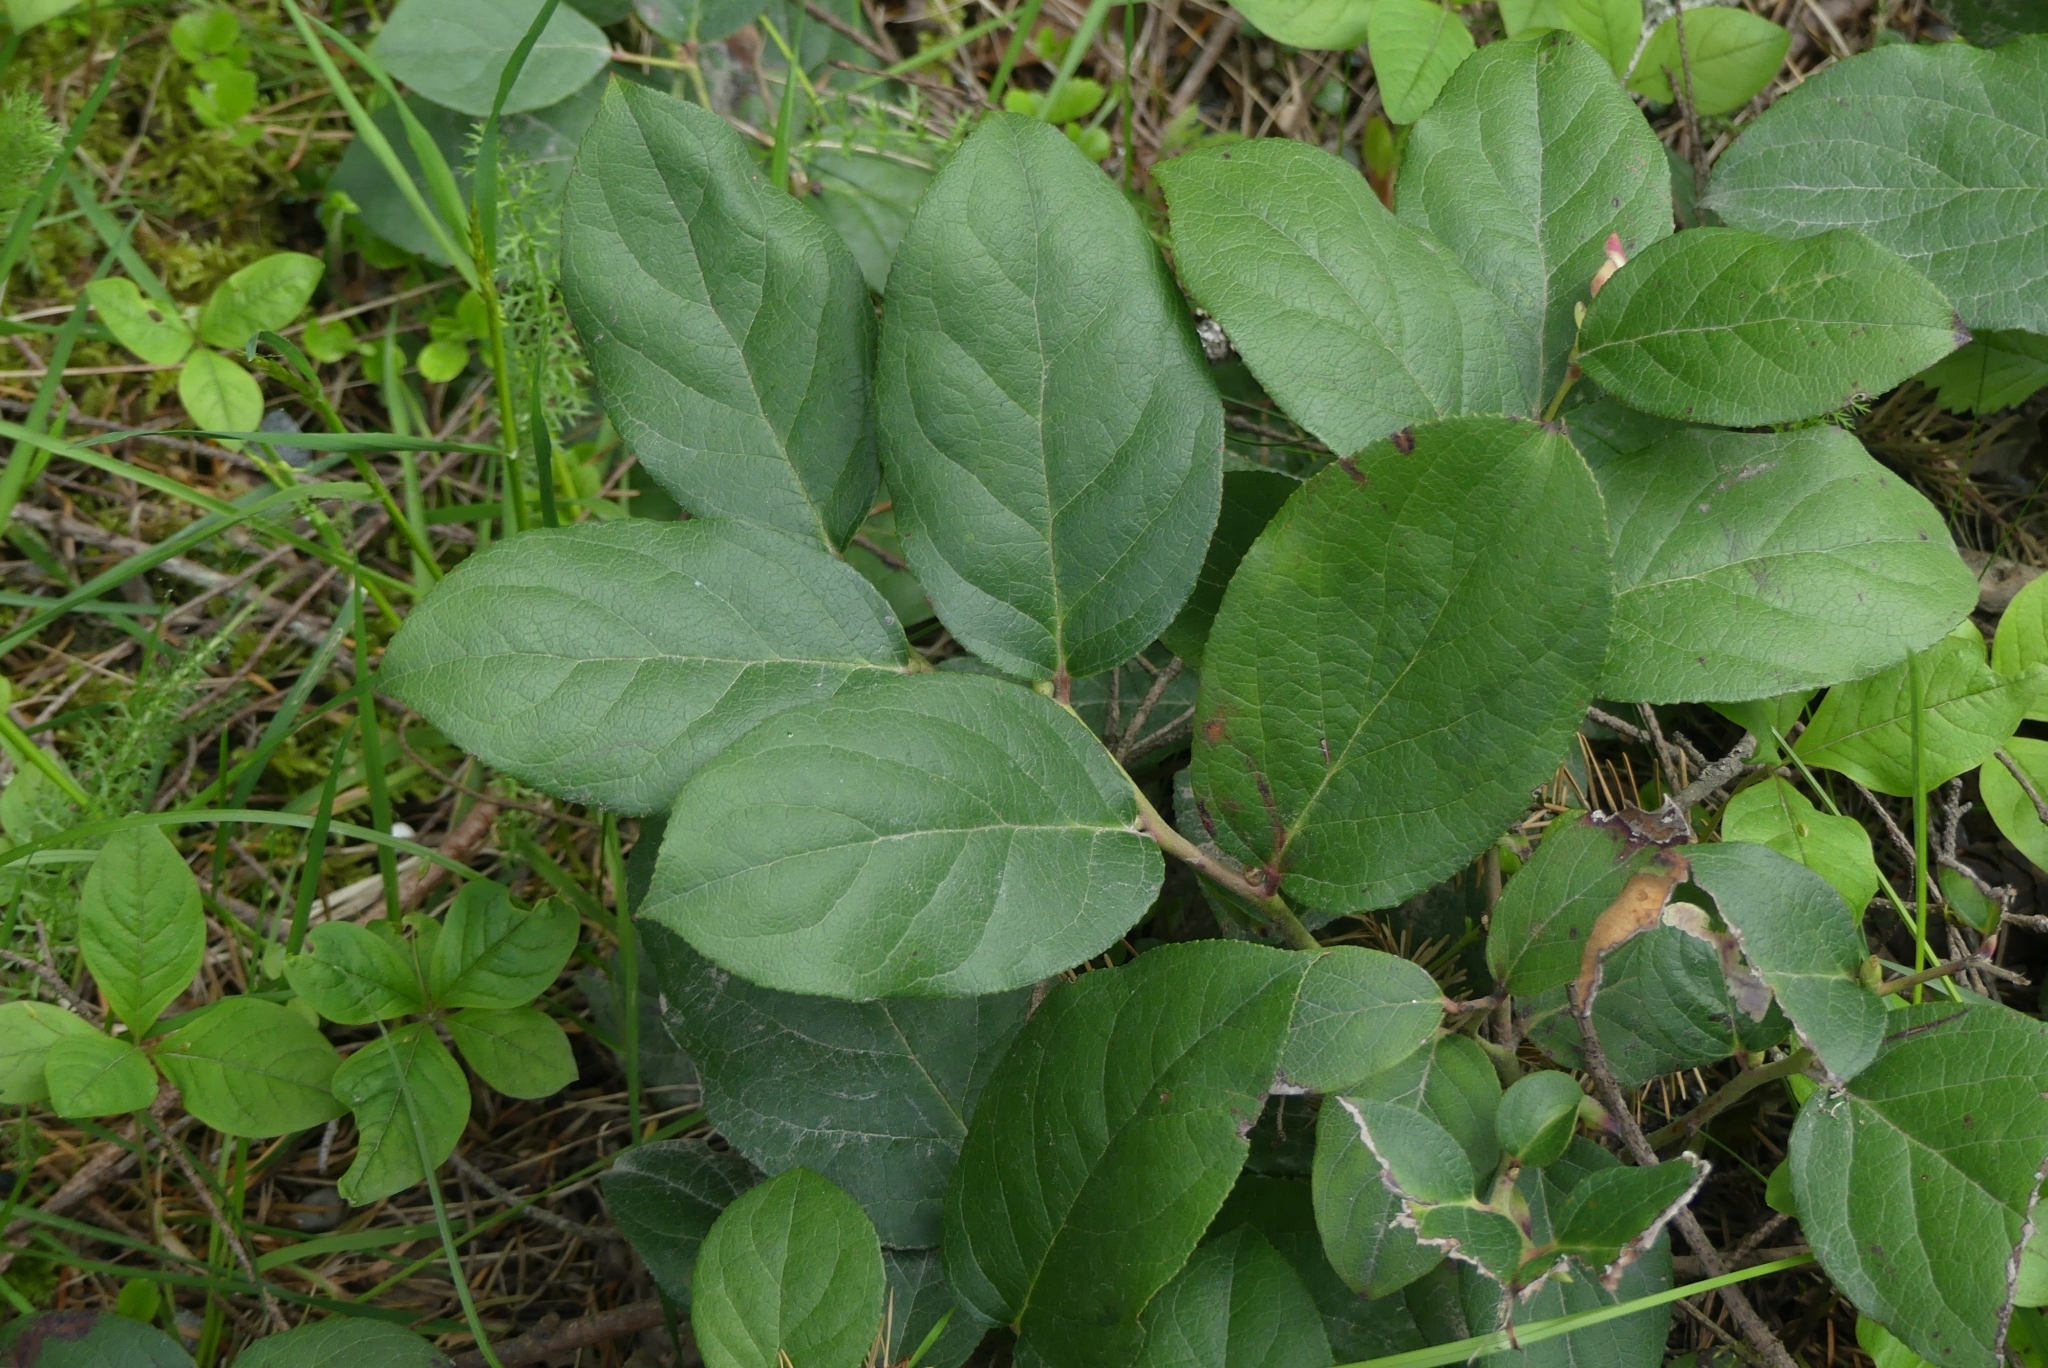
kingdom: Plantae
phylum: Tracheophyta
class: Magnoliopsida
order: Ericales
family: Ericaceae
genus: Gaultheria
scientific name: Gaultheria shallon
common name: Shallon
